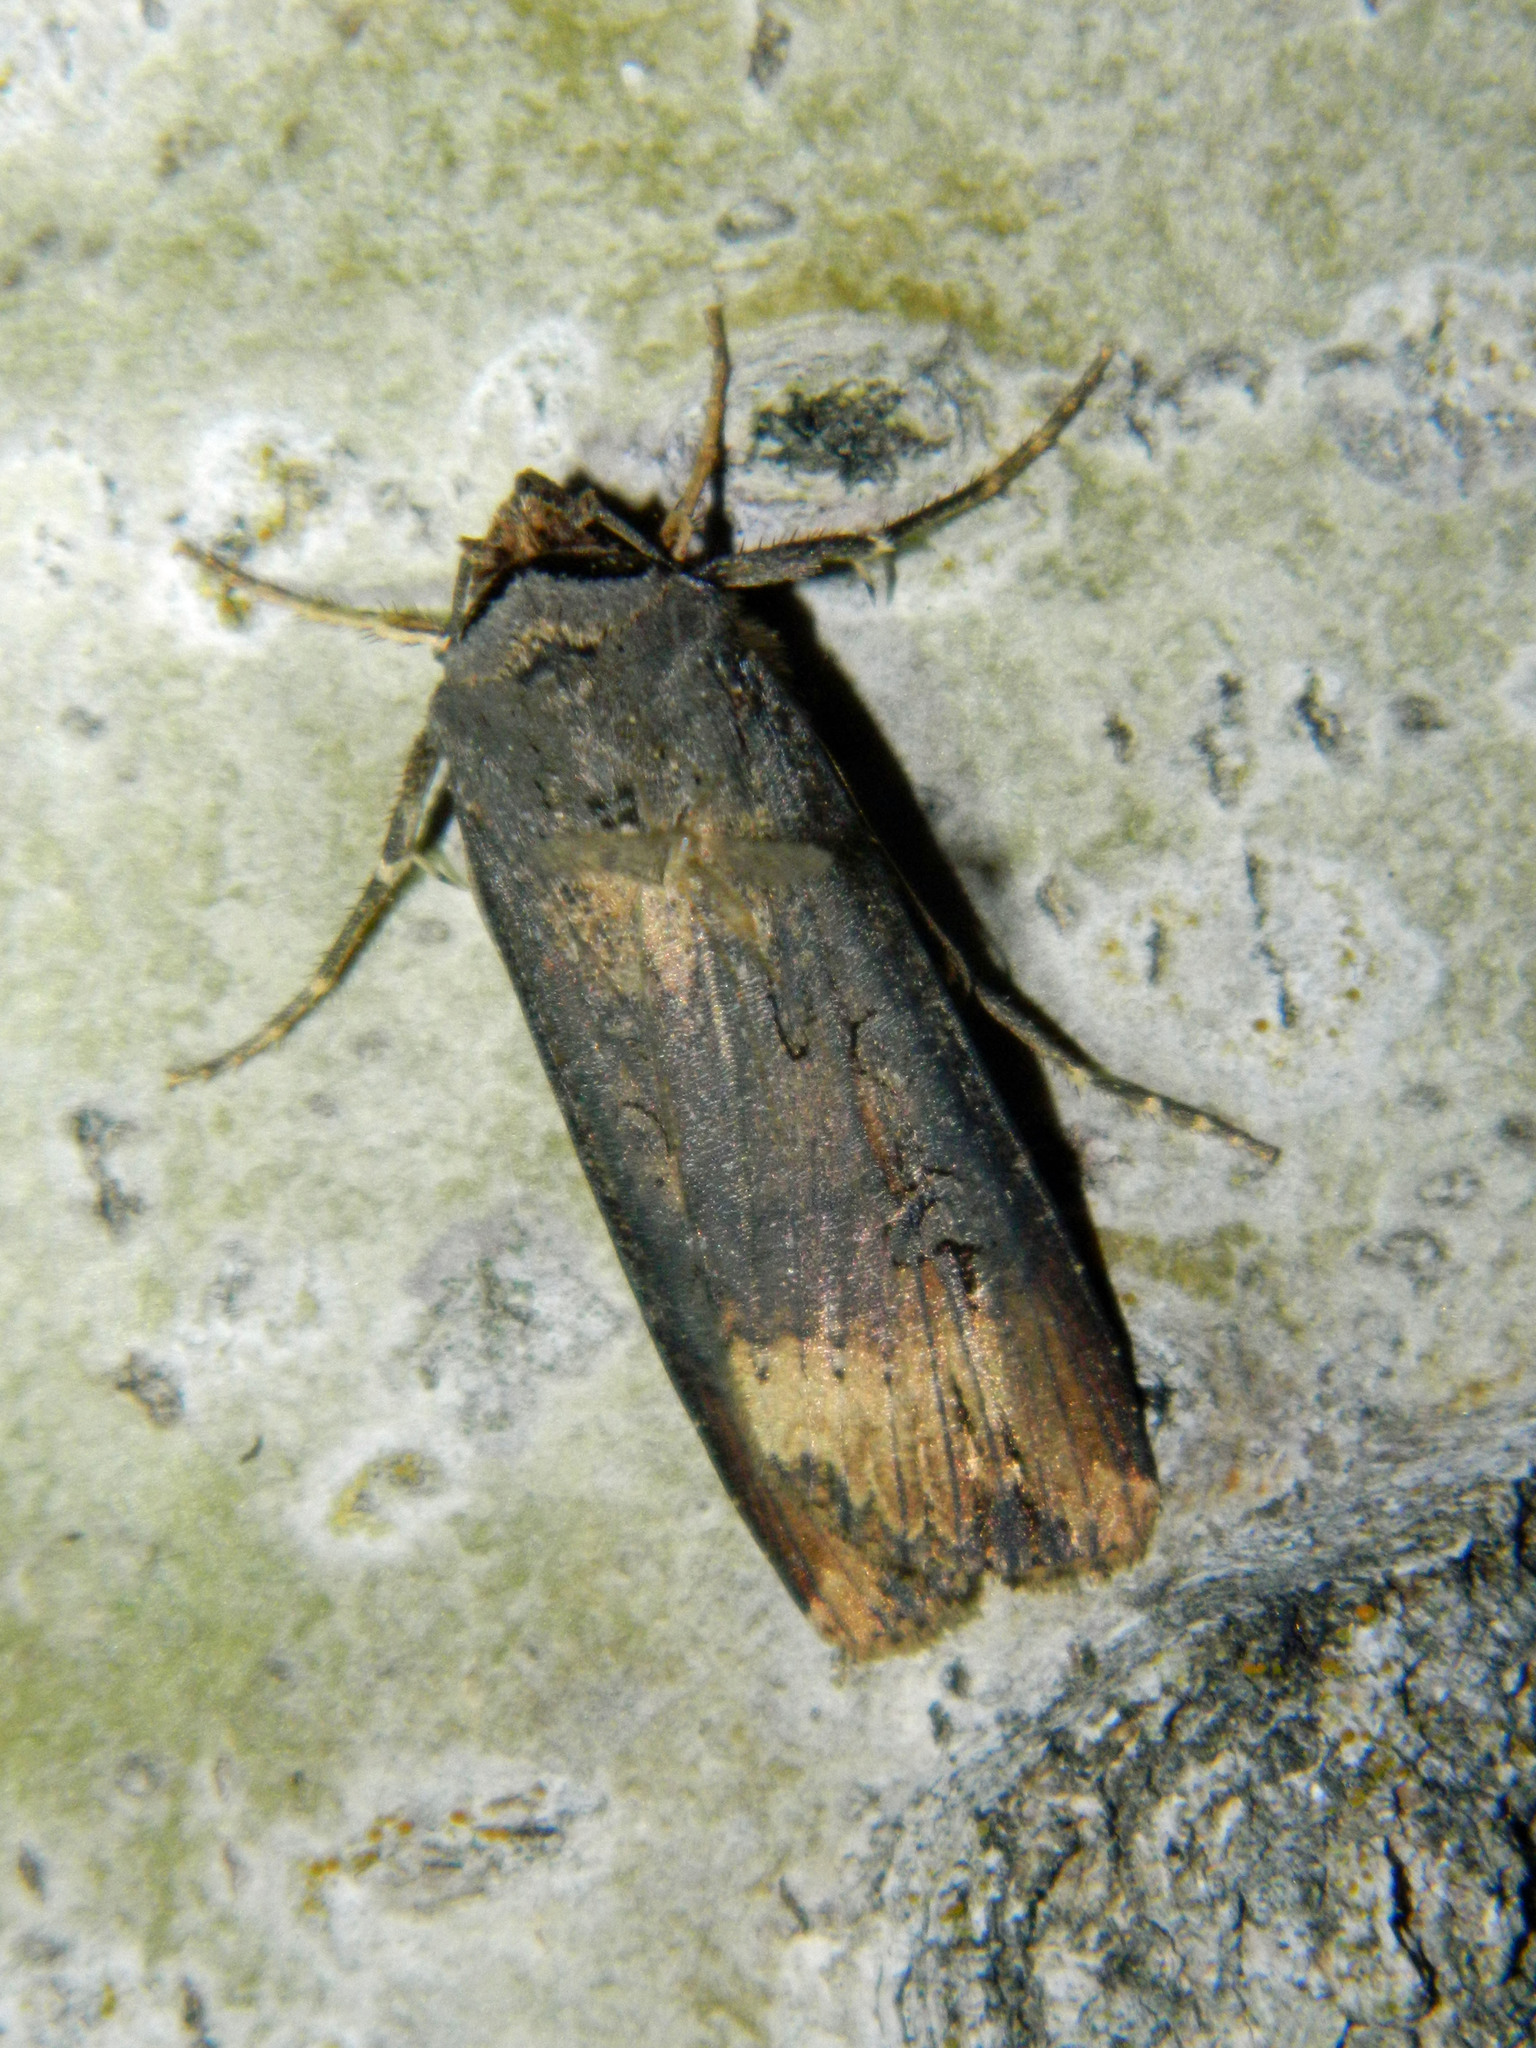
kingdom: Animalia
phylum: Arthropoda
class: Insecta
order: Lepidoptera
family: Noctuidae
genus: Agrotis
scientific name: Agrotis ipsilon
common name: Dark sword-grass
